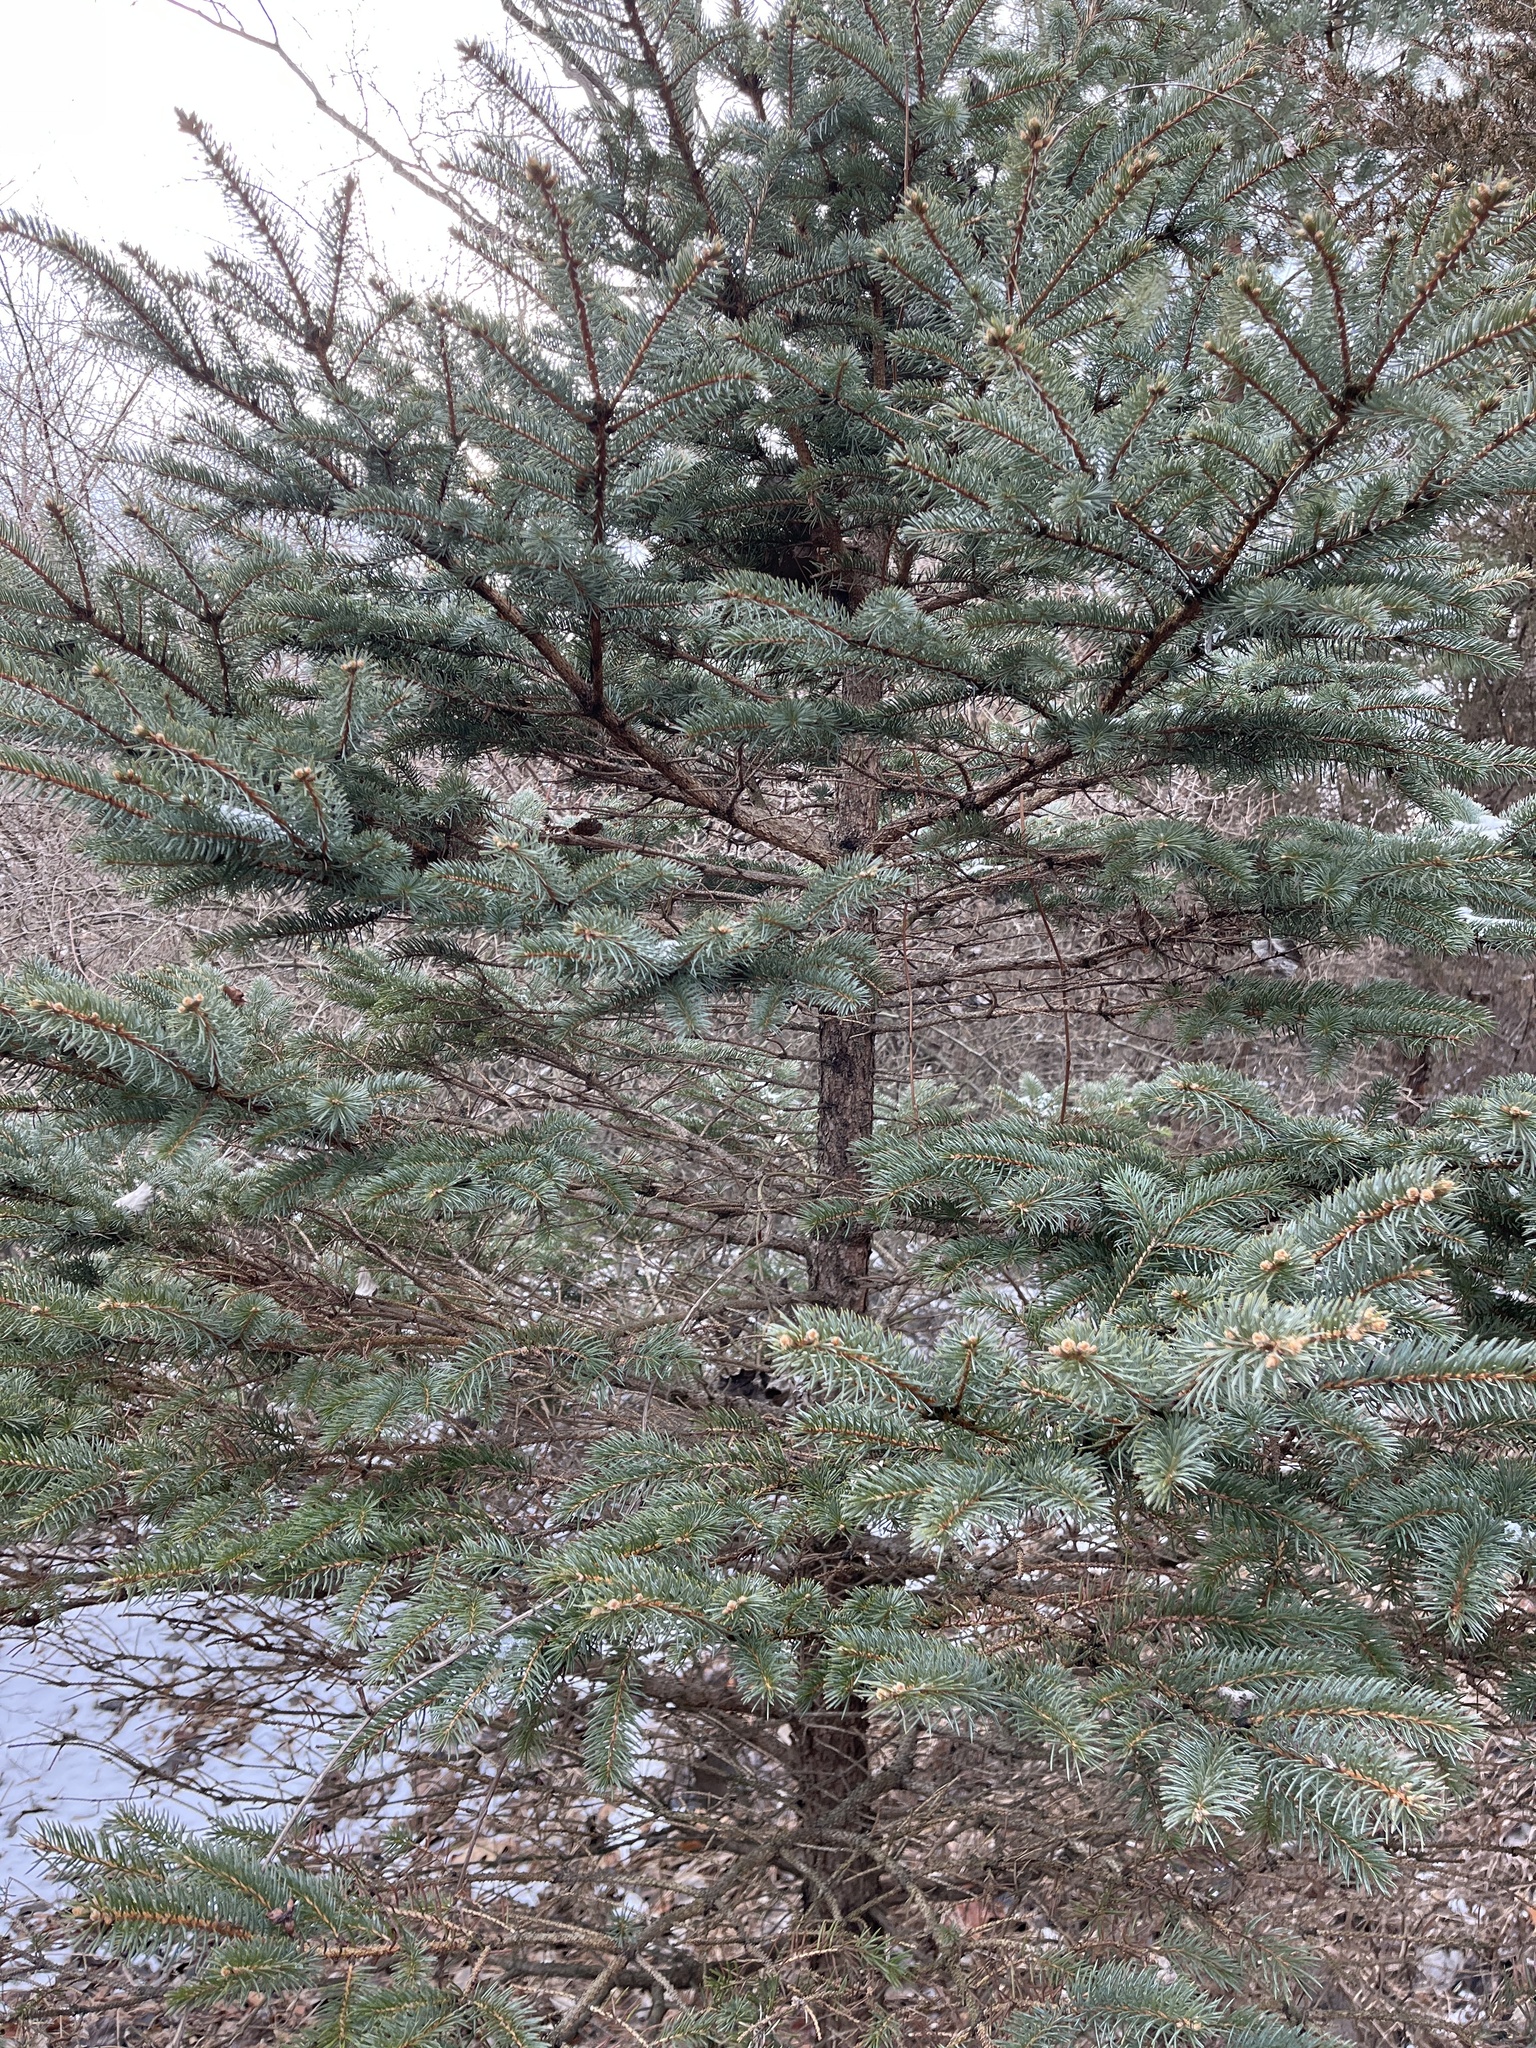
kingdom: Plantae
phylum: Tracheophyta
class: Pinopsida
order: Pinales
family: Pinaceae
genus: Picea
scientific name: Picea pungens
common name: Colorado spruce
